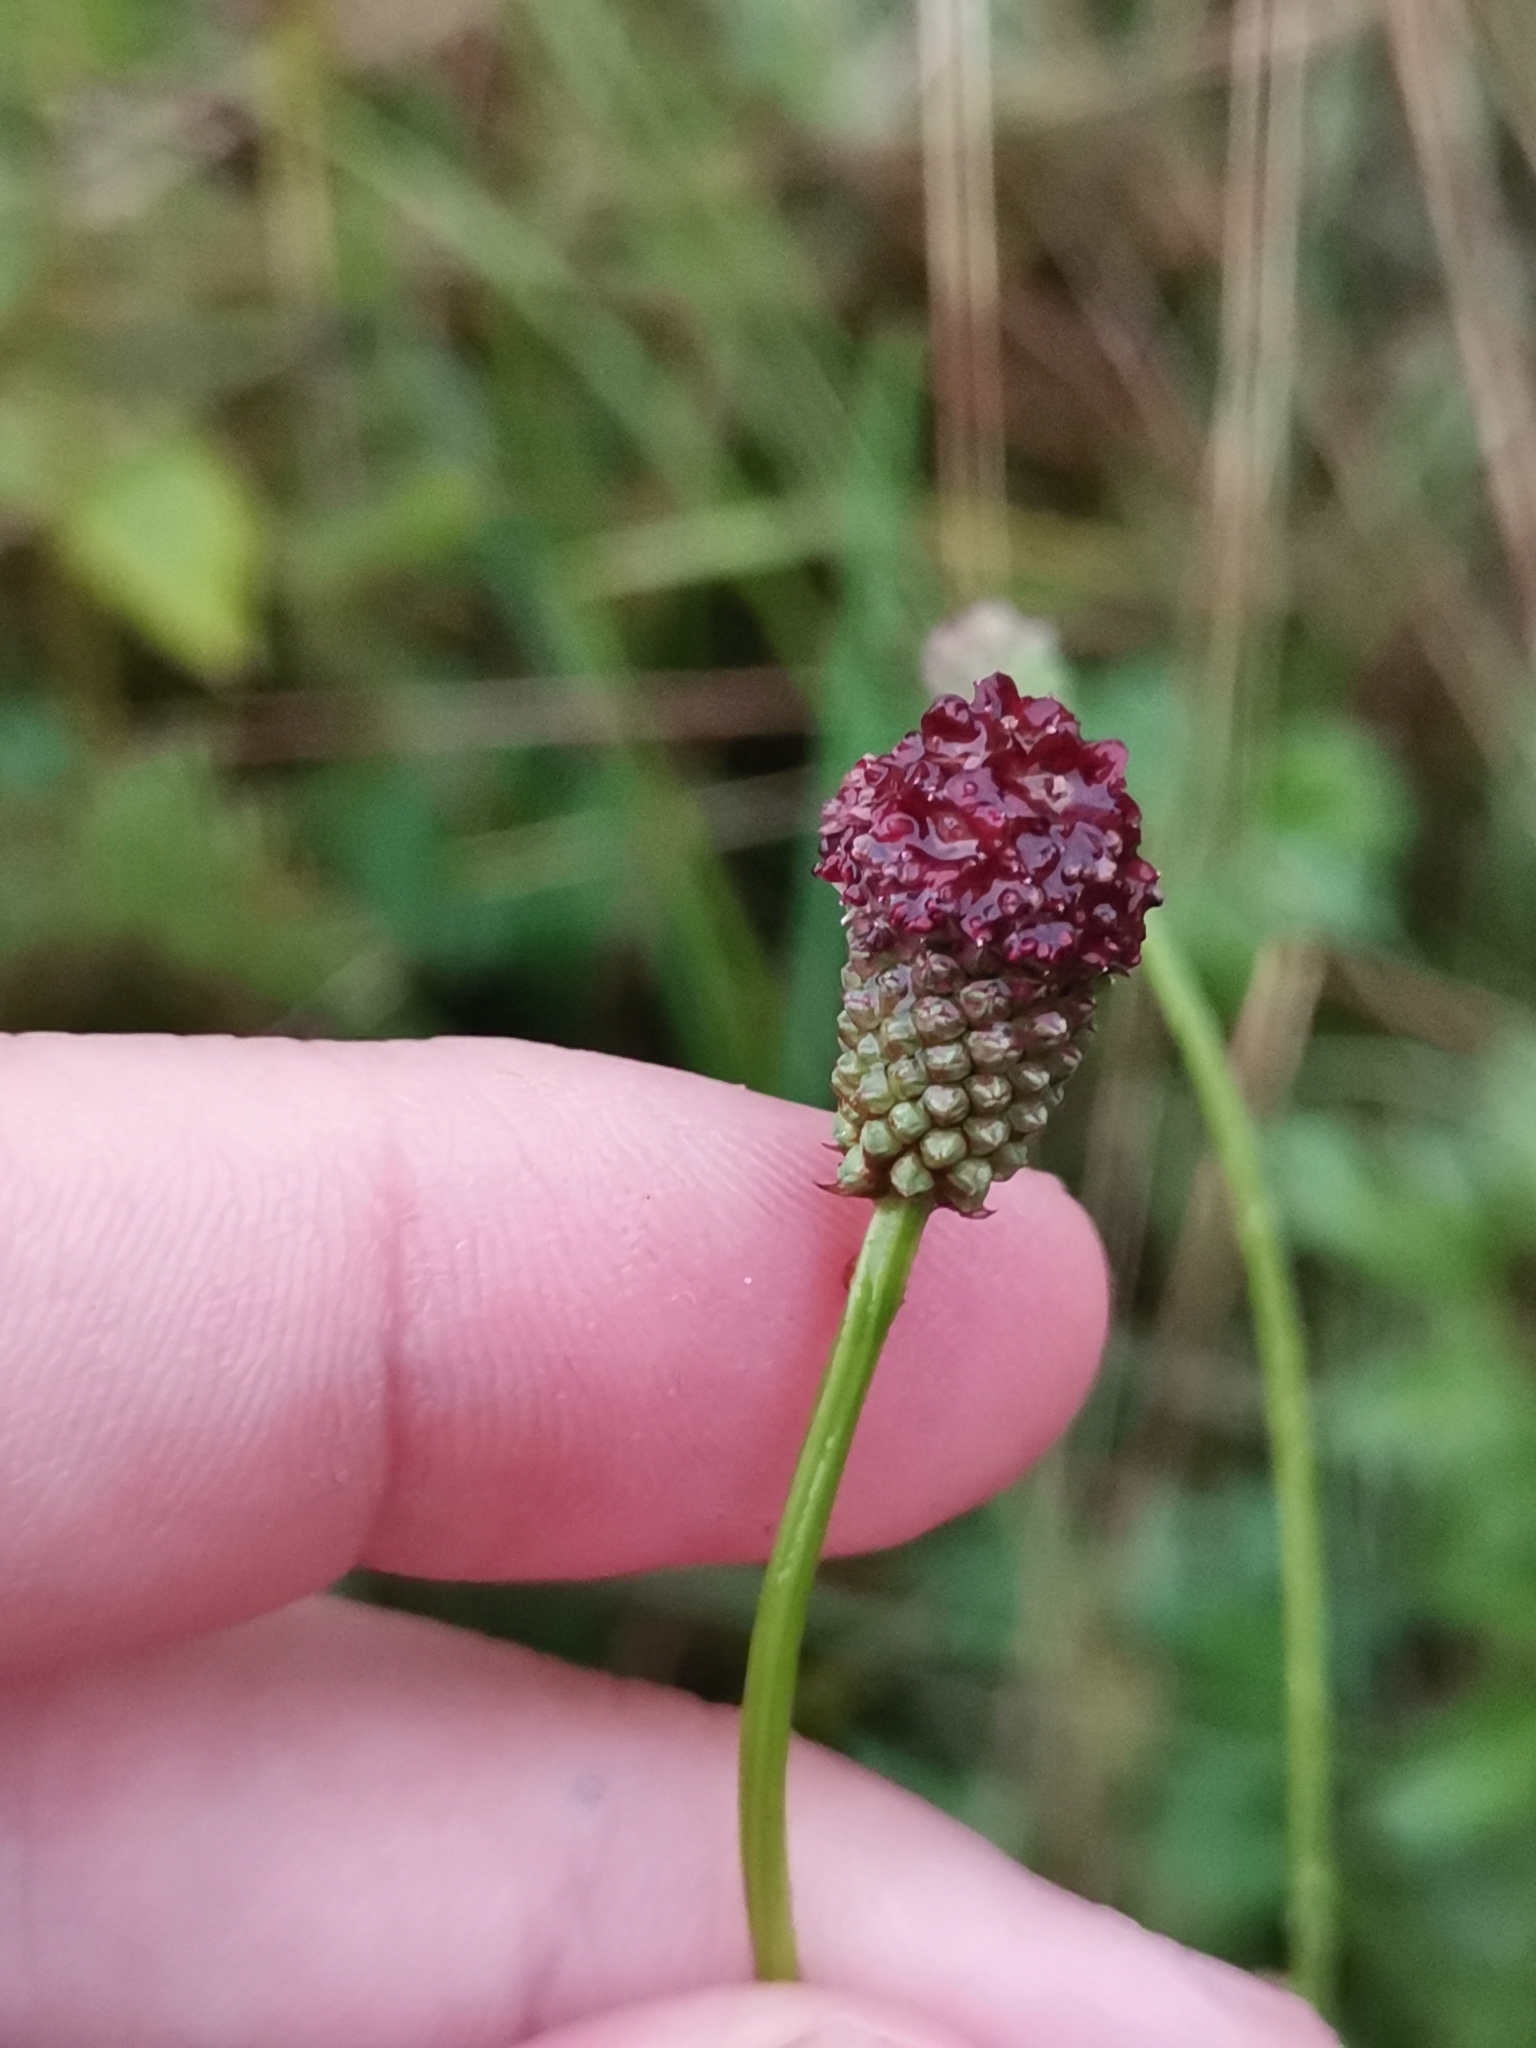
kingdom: Plantae
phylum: Tracheophyta
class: Magnoliopsida
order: Rosales
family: Rosaceae
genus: Sanguisorba
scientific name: Sanguisorba officinalis
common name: Great burnet
